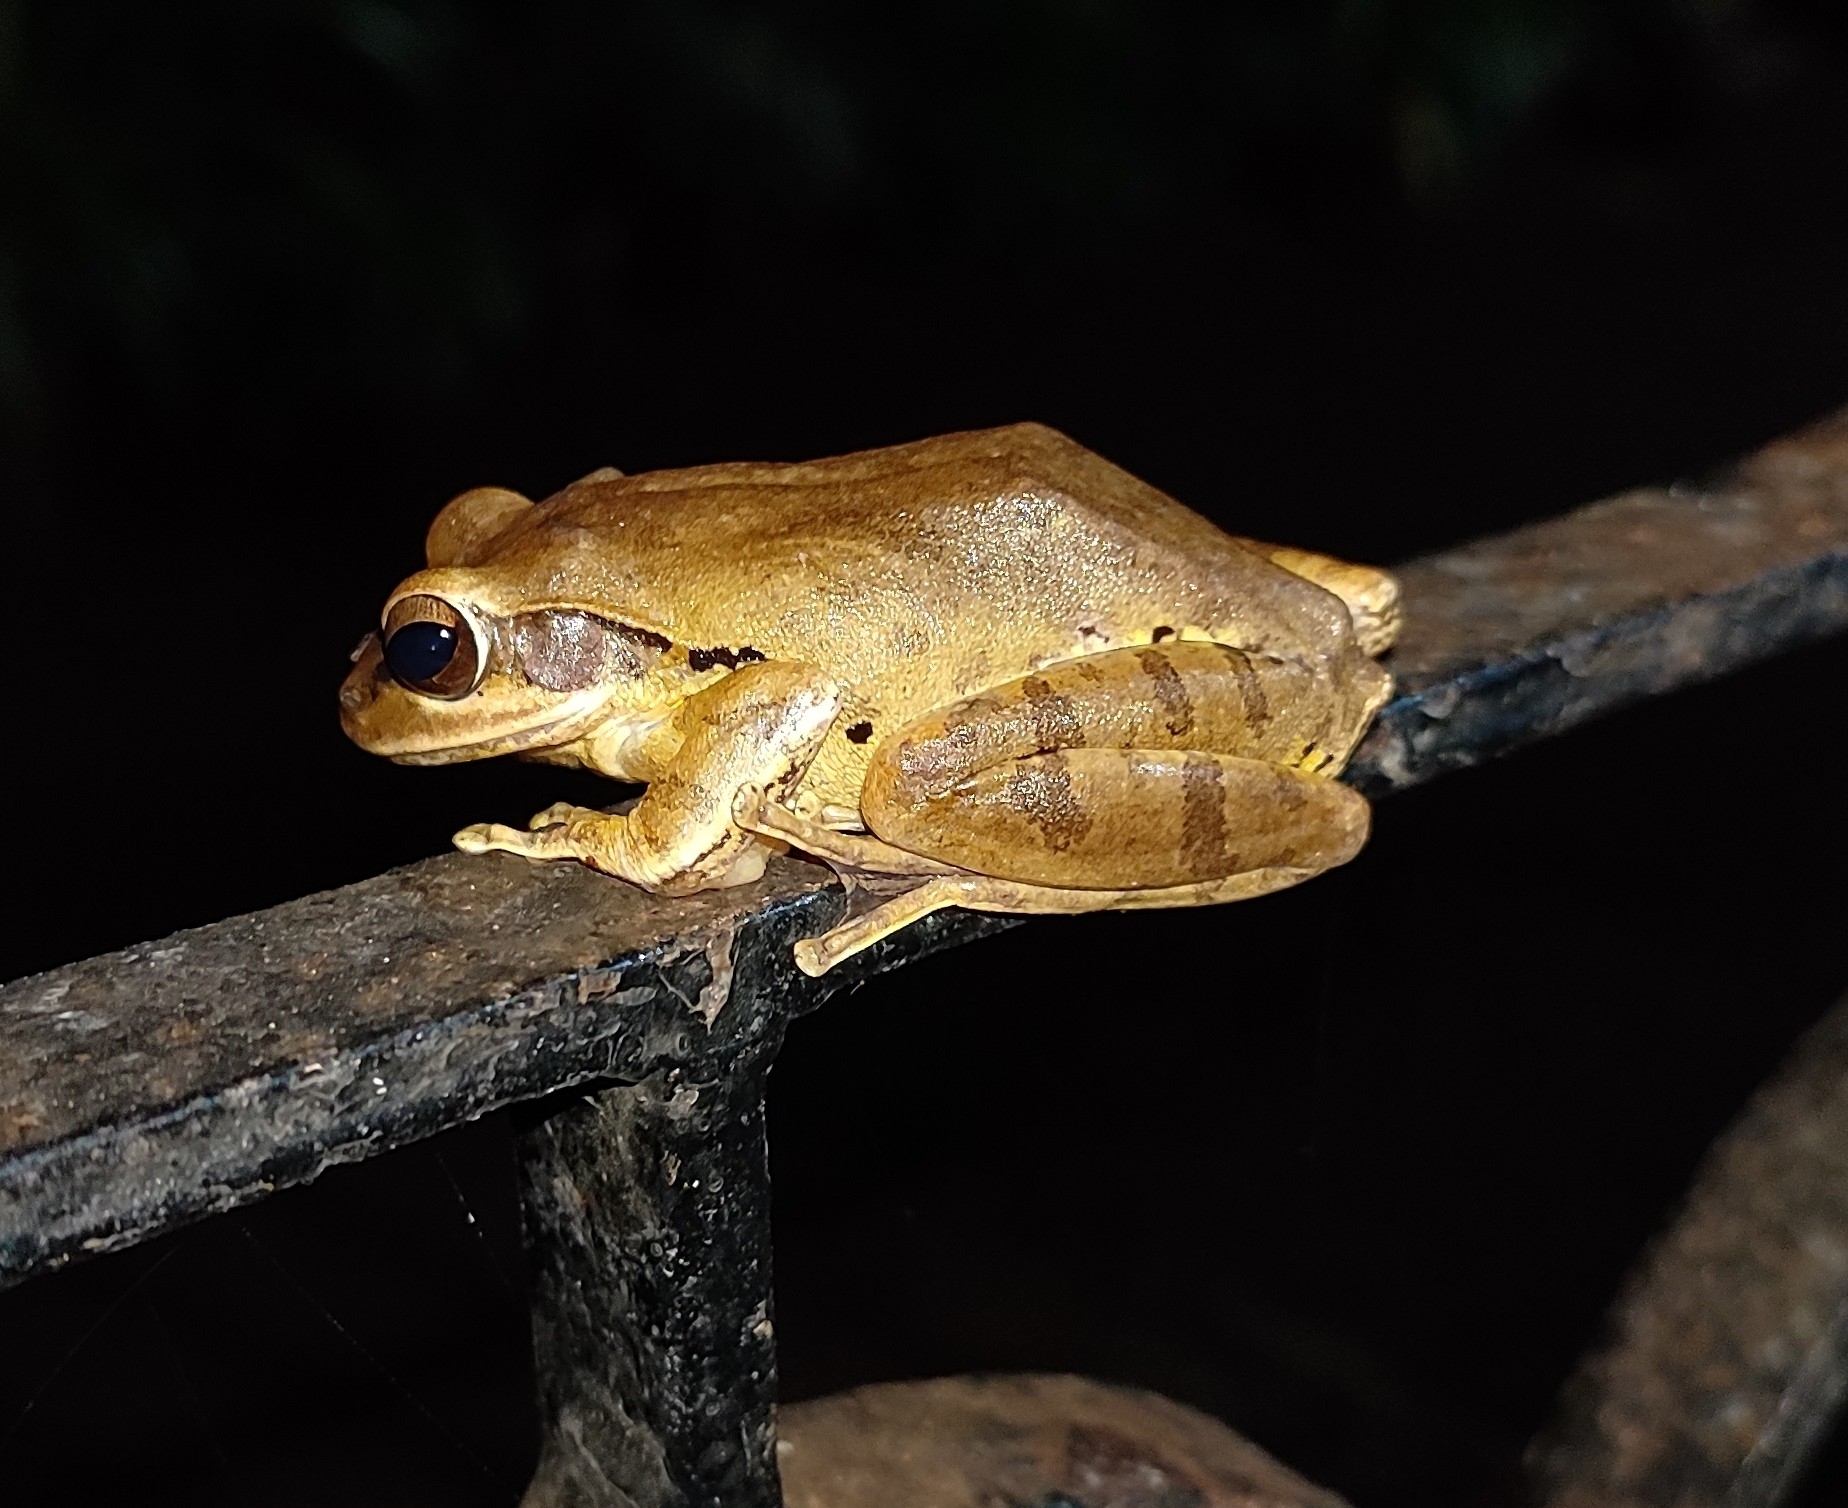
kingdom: Animalia
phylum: Chordata
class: Amphibia
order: Anura
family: Rhacophoridae
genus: Polypedates
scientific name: Polypedates maculatus
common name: Himalayan tree frog
